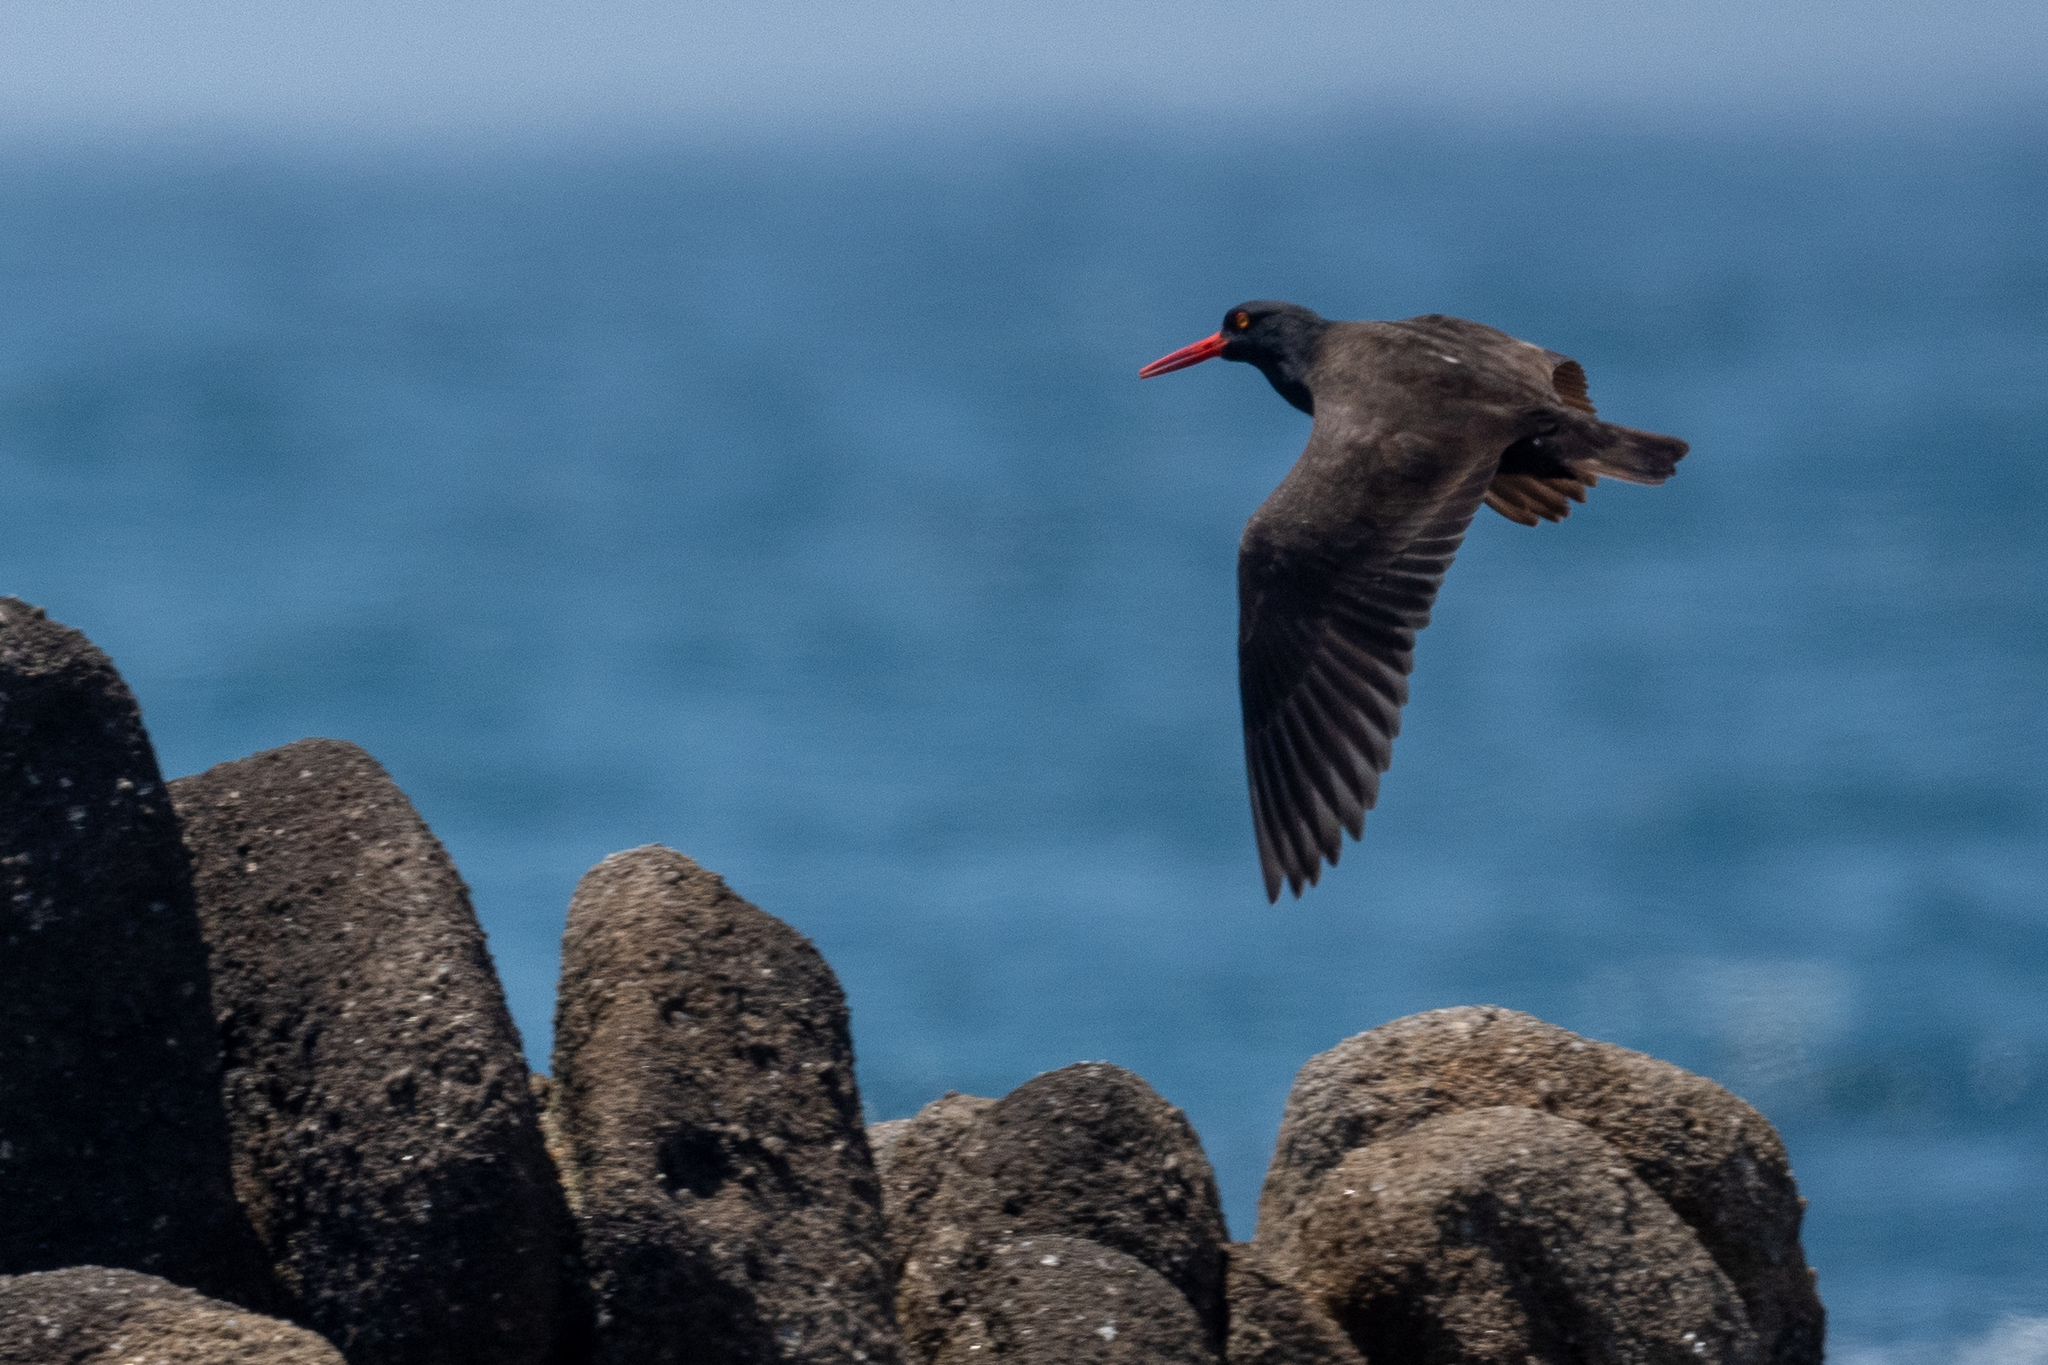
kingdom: Animalia
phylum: Chordata
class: Aves
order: Charadriiformes
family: Haematopodidae
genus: Haematopus
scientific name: Haematopus bachmani
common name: Black oystercatcher
